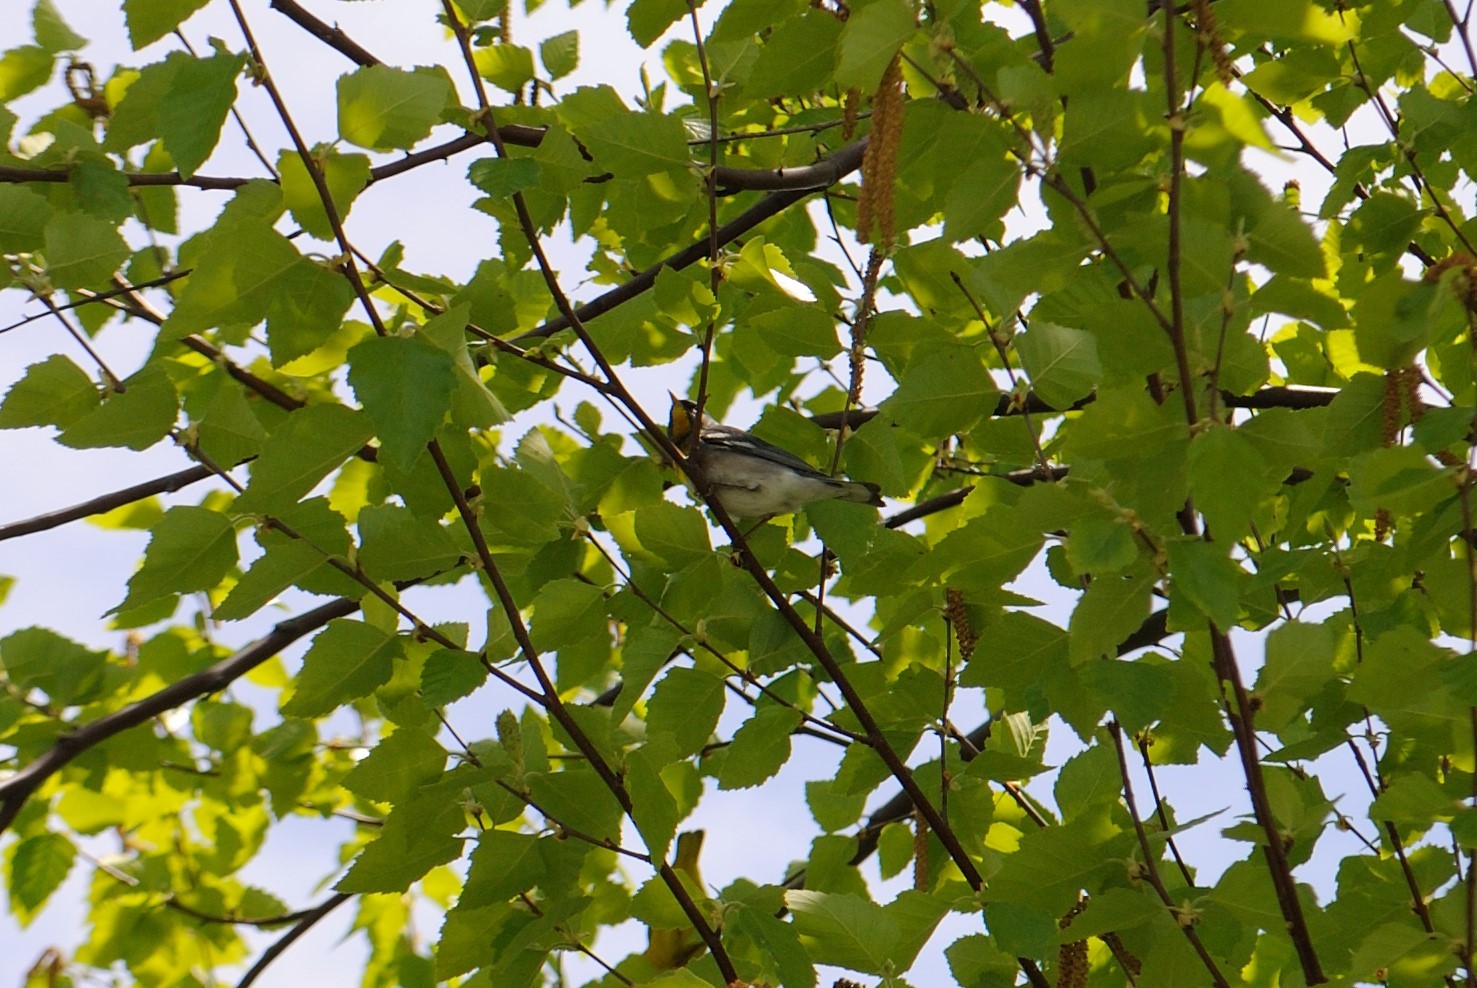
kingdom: Animalia
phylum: Chordata
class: Aves
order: Passeriformes
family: Parulidae
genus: Setophaga
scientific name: Setophaga americana
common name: Northern parula
